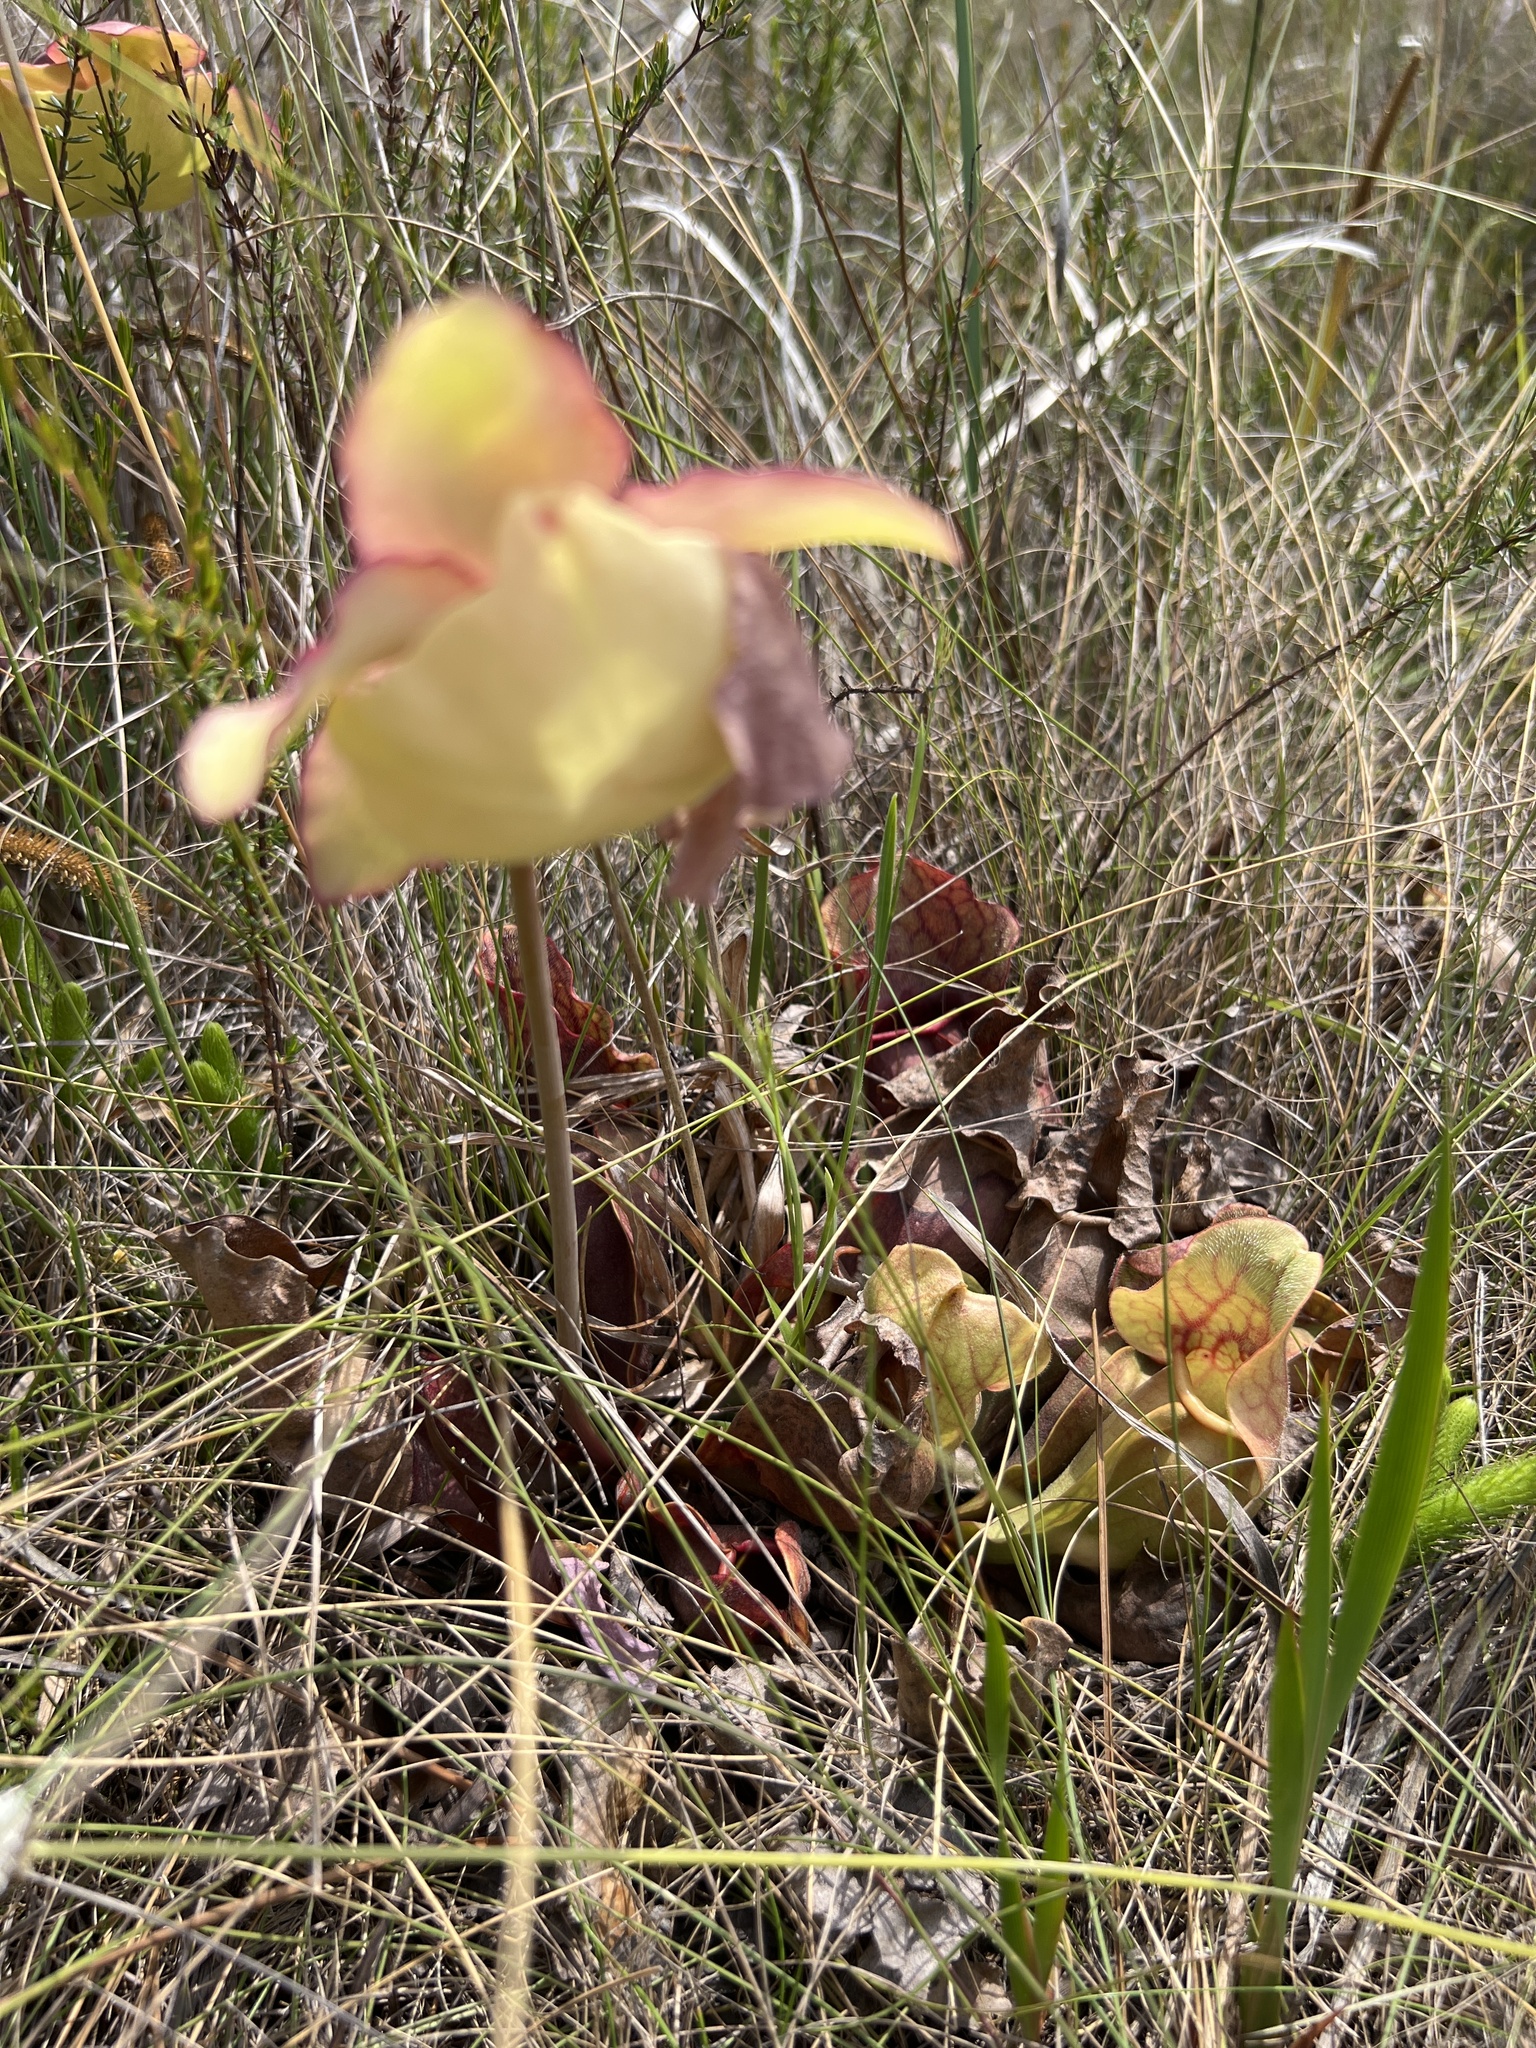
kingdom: Plantae
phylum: Tracheophyta
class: Magnoliopsida
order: Ericales
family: Sarraceniaceae
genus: Sarracenia
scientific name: Sarracenia rosea
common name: Pink pitcherplant
